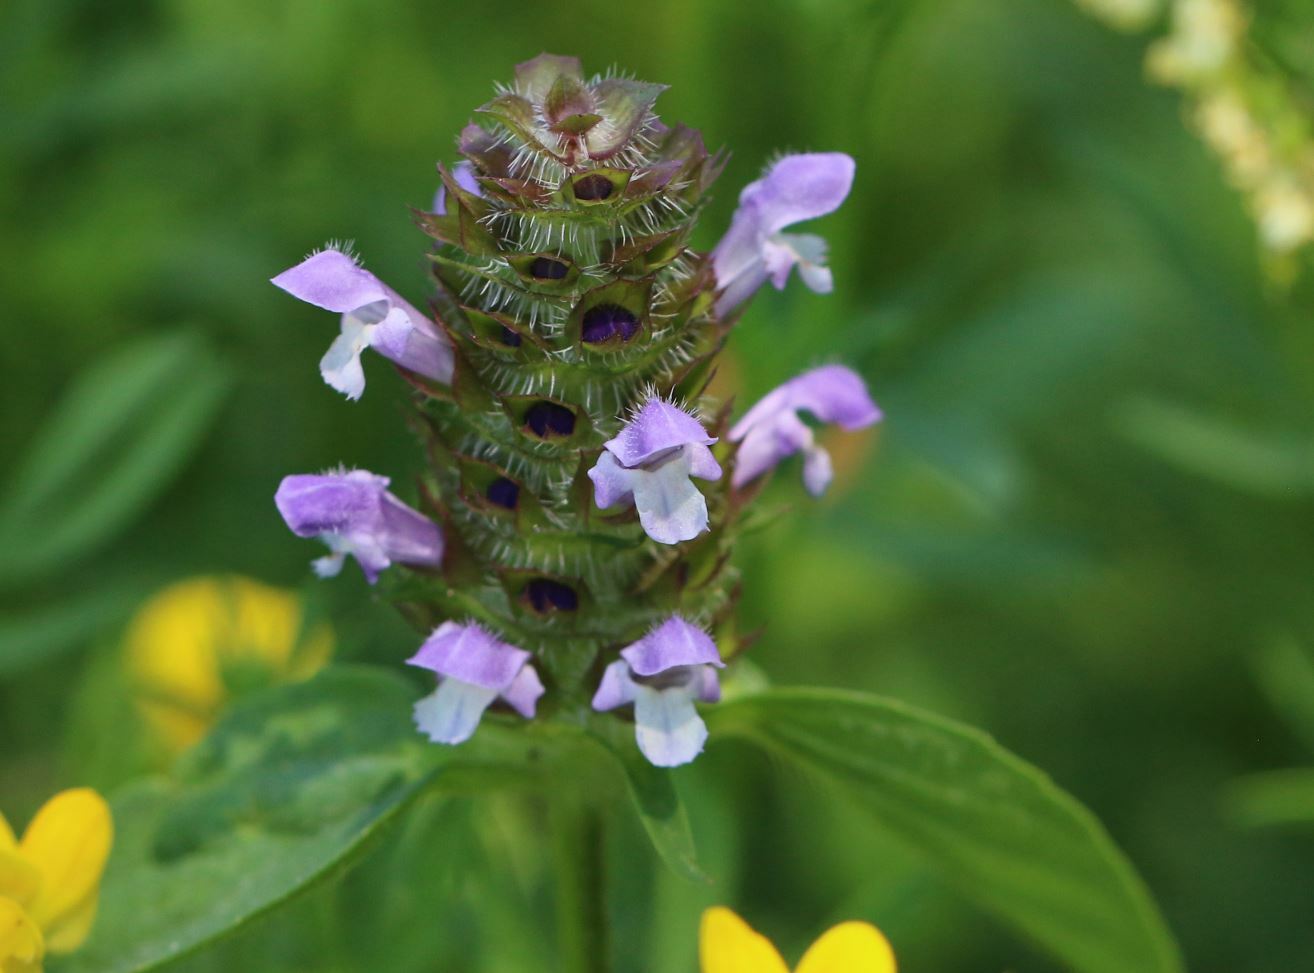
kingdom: Plantae
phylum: Tracheophyta
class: Magnoliopsida
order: Lamiales
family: Lamiaceae
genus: Prunella
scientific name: Prunella vulgaris
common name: Heal-all
